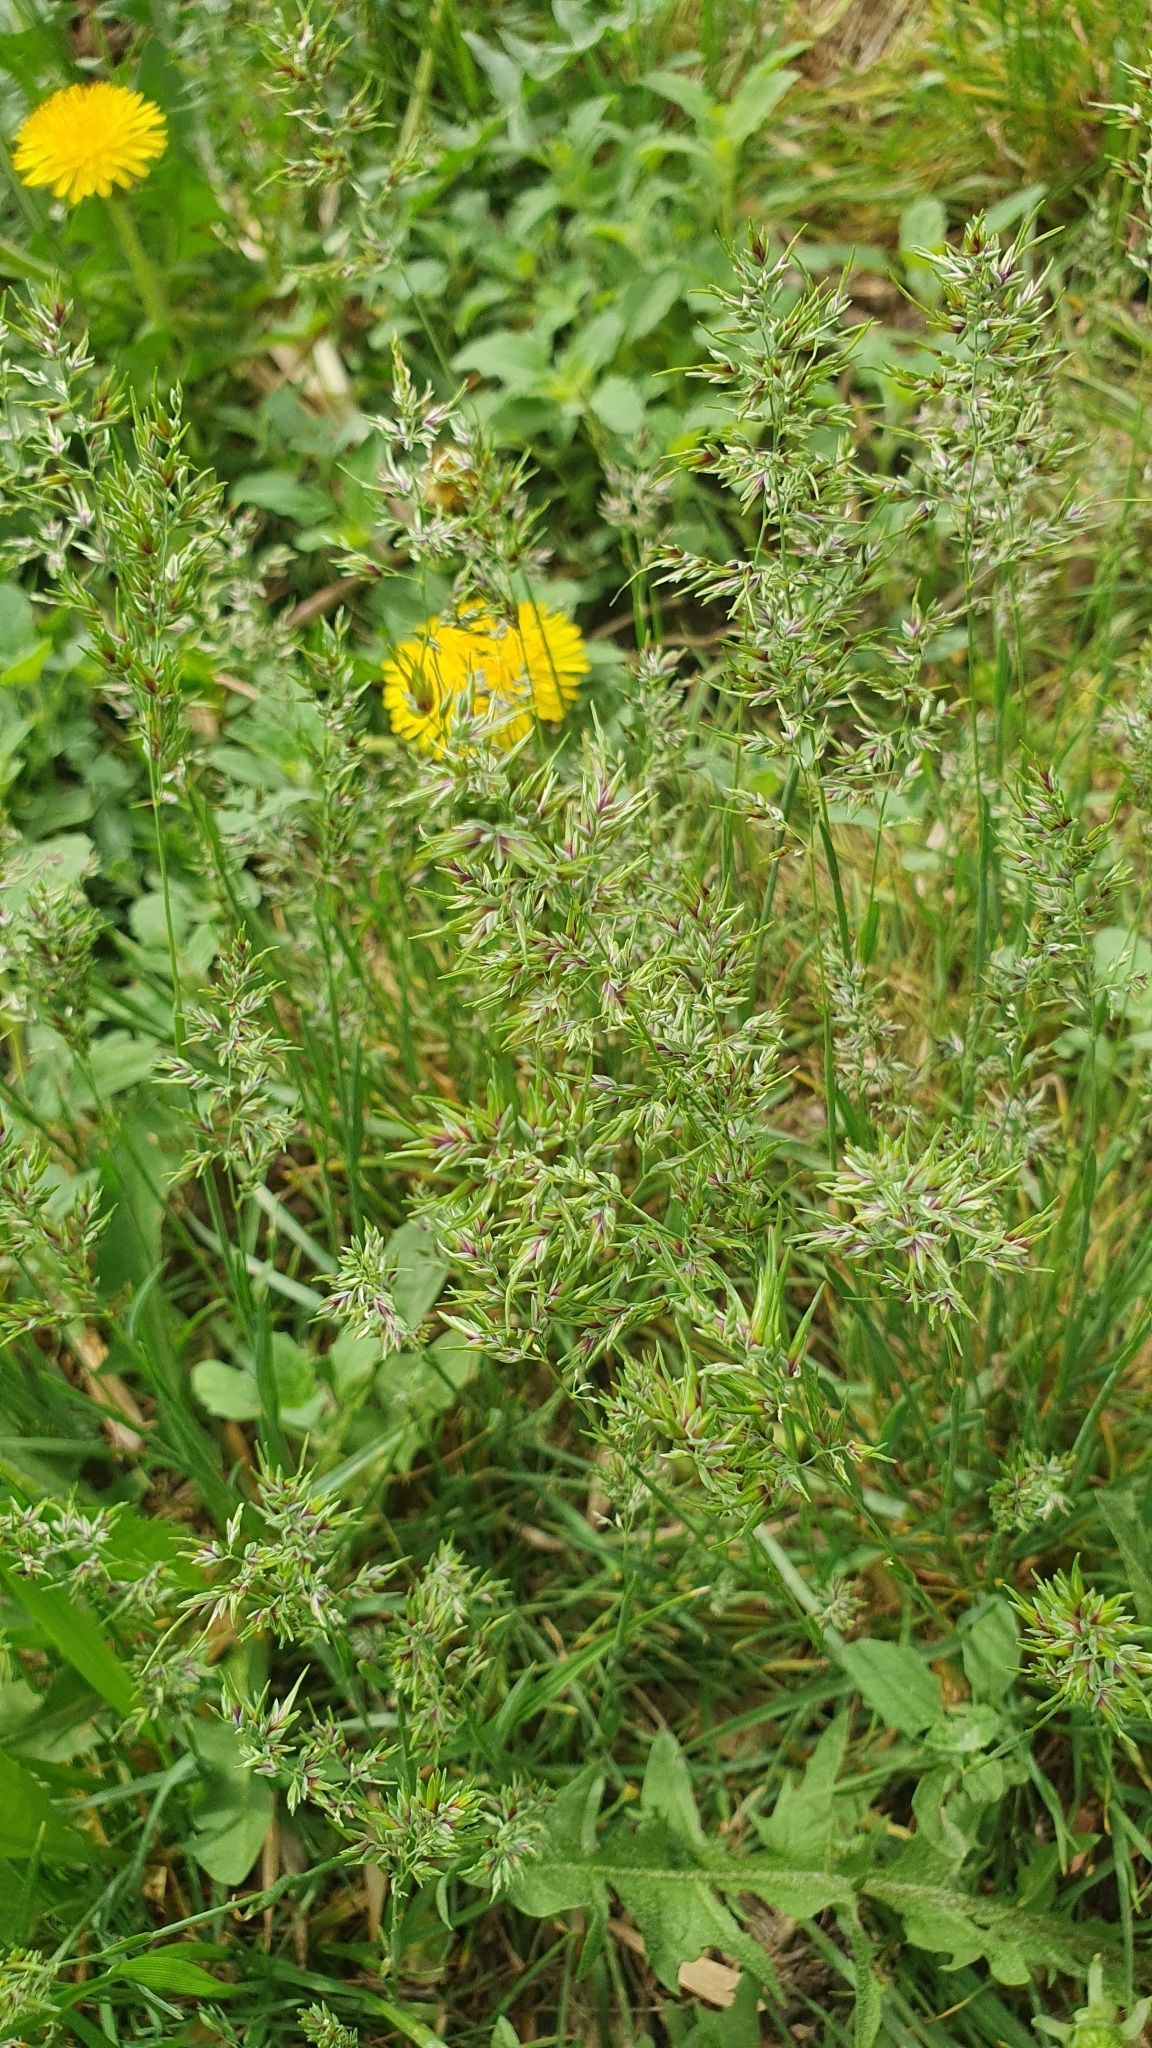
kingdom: Plantae
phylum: Tracheophyta
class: Liliopsida
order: Poales
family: Poaceae
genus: Poa
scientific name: Poa bulbosa
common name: Bulbous bluegrass
